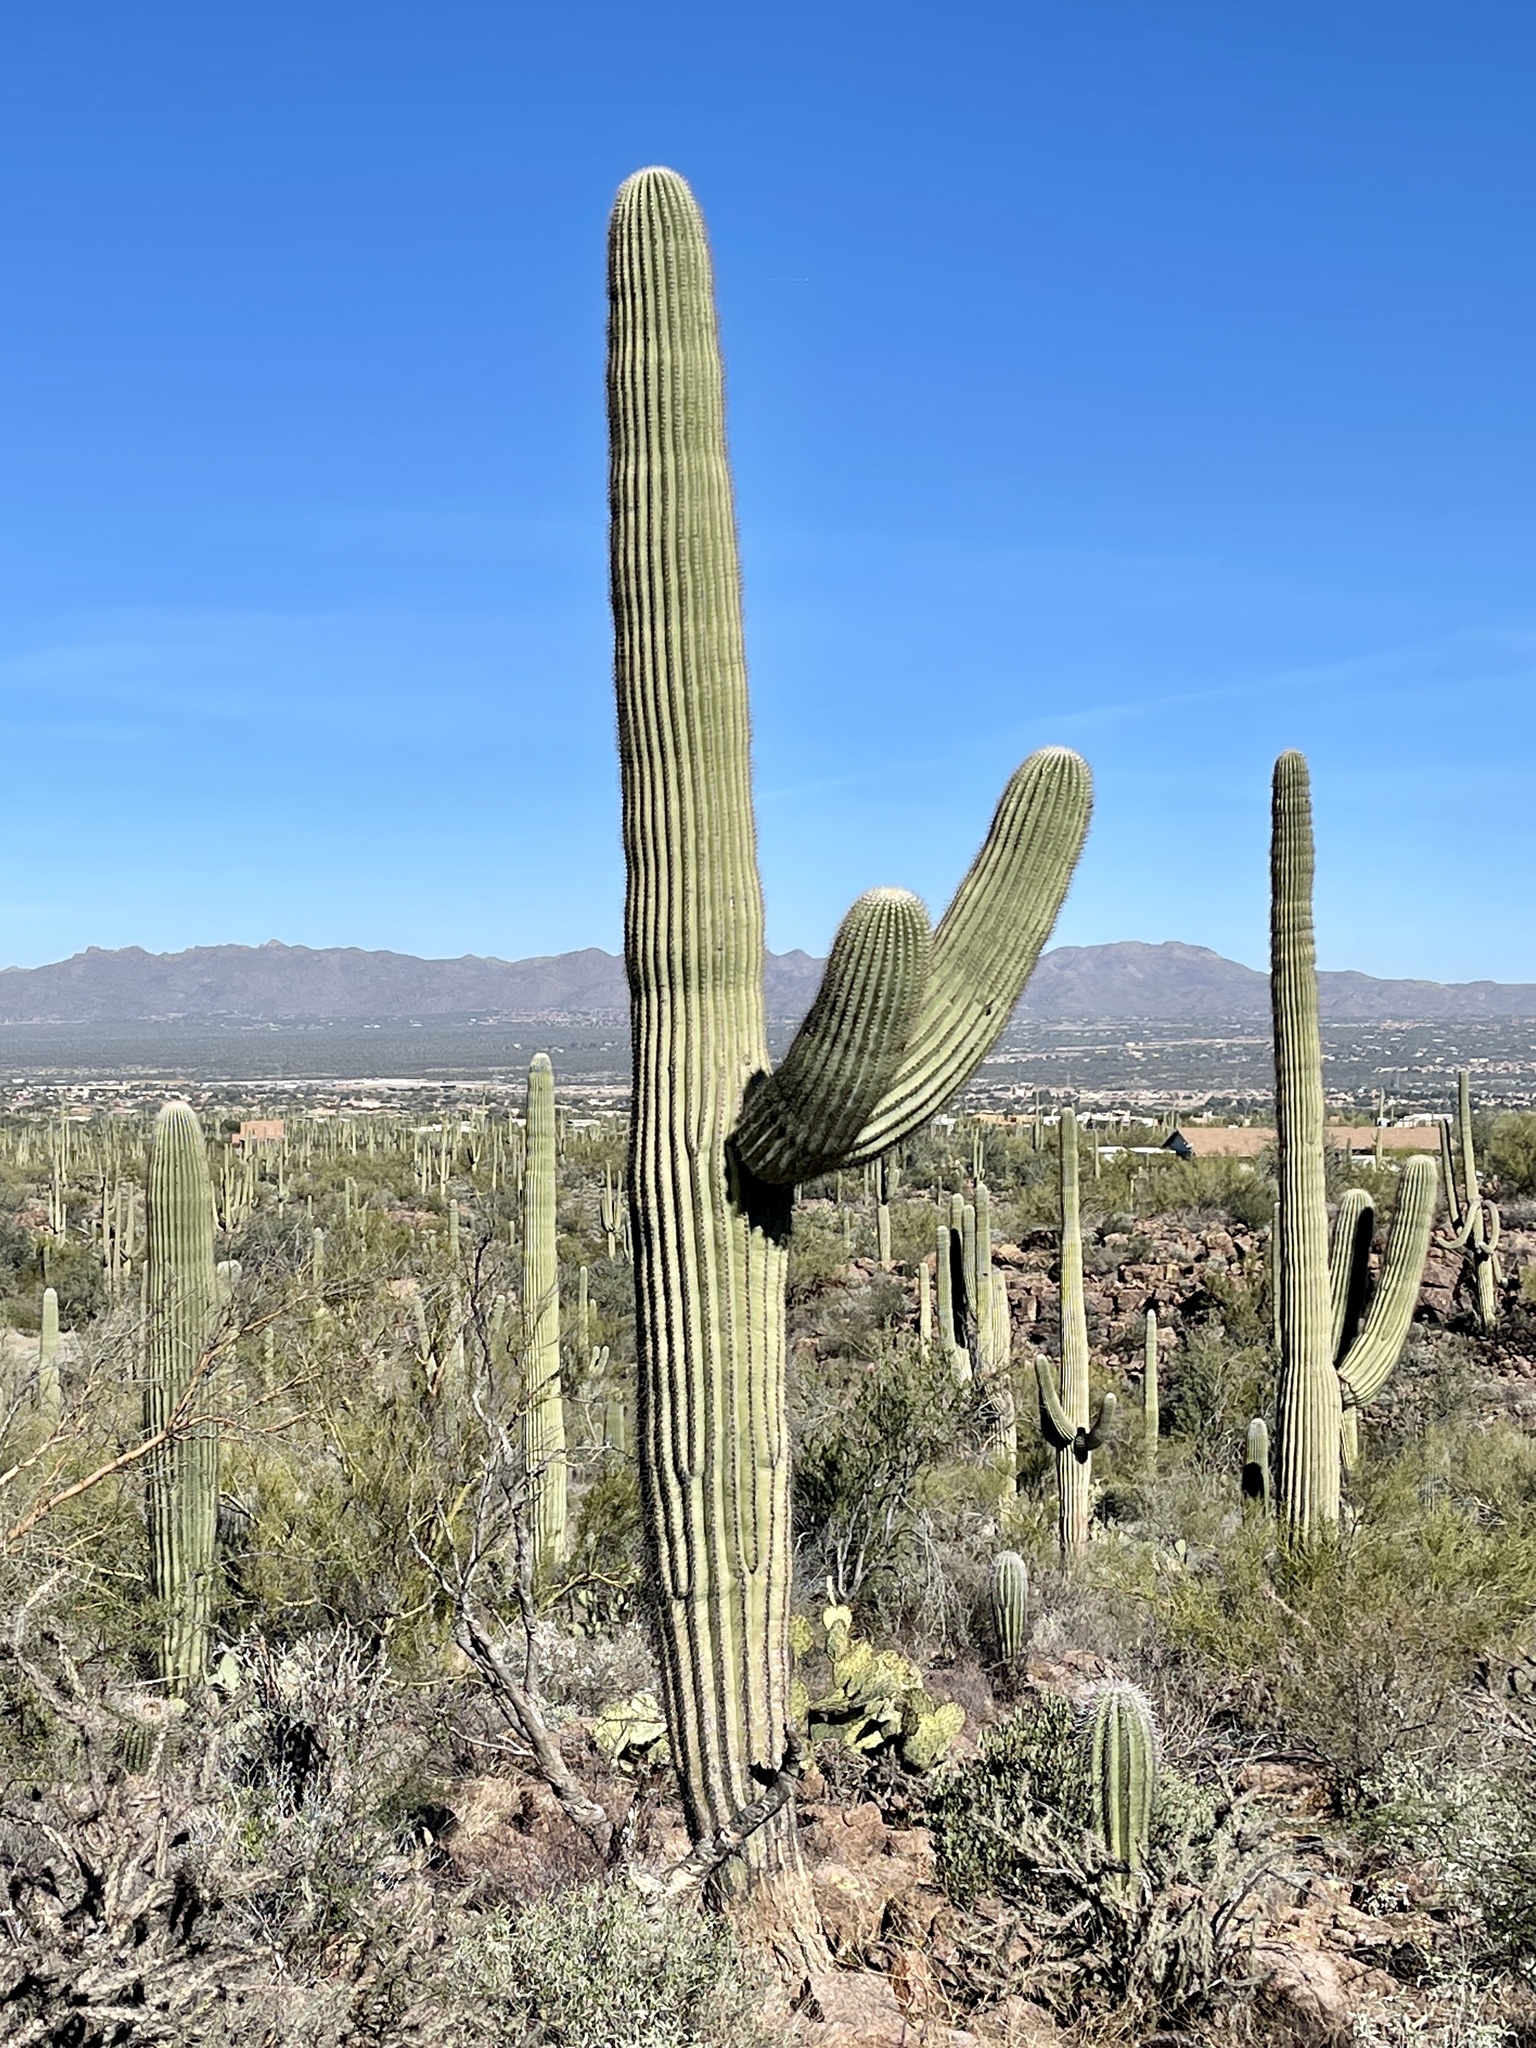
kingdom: Plantae
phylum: Tracheophyta
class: Magnoliopsida
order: Caryophyllales
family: Cactaceae
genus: Carnegiea
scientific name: Carnegiea gigantea
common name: Saguaro
